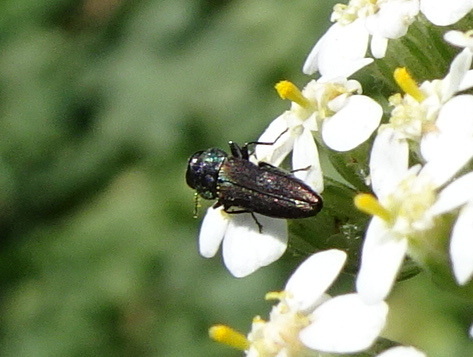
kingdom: Animalia
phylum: Arthropoda
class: Insecta
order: Coleoptera
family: Buprestidae
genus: Agrilaxia
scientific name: Agrilaxia flavimana
